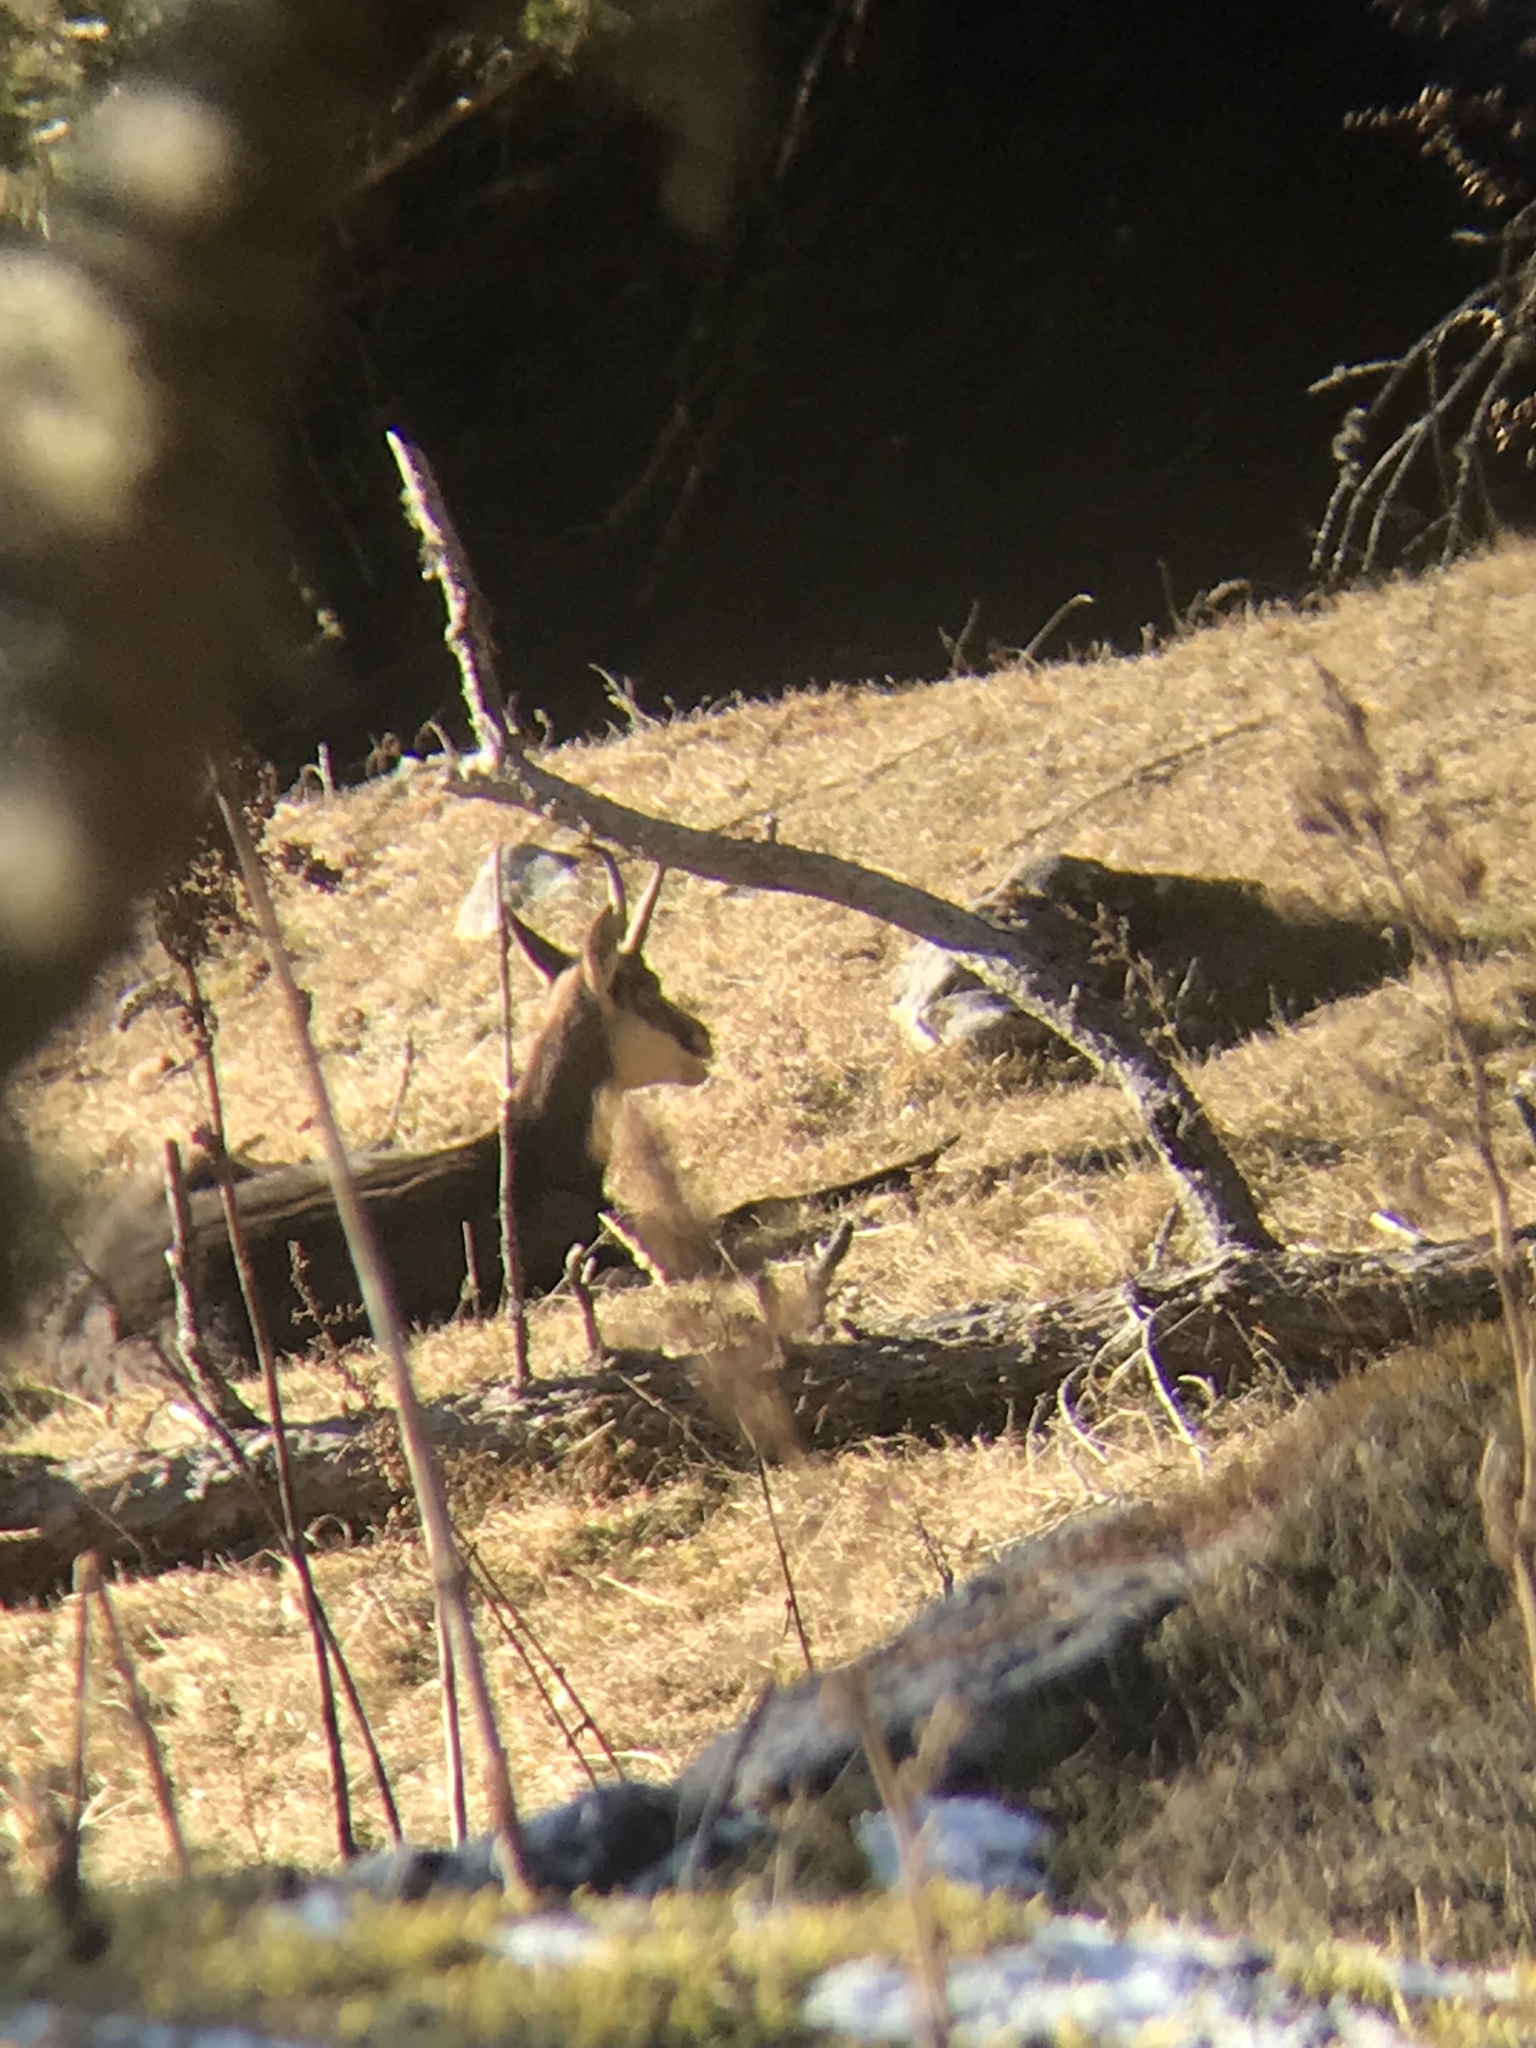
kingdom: Animalia
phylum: Chordata
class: Mammalia
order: Artiodactyla
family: Bovidae
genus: Rupicapra
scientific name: Rupicapra rupicapra
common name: Chamois
